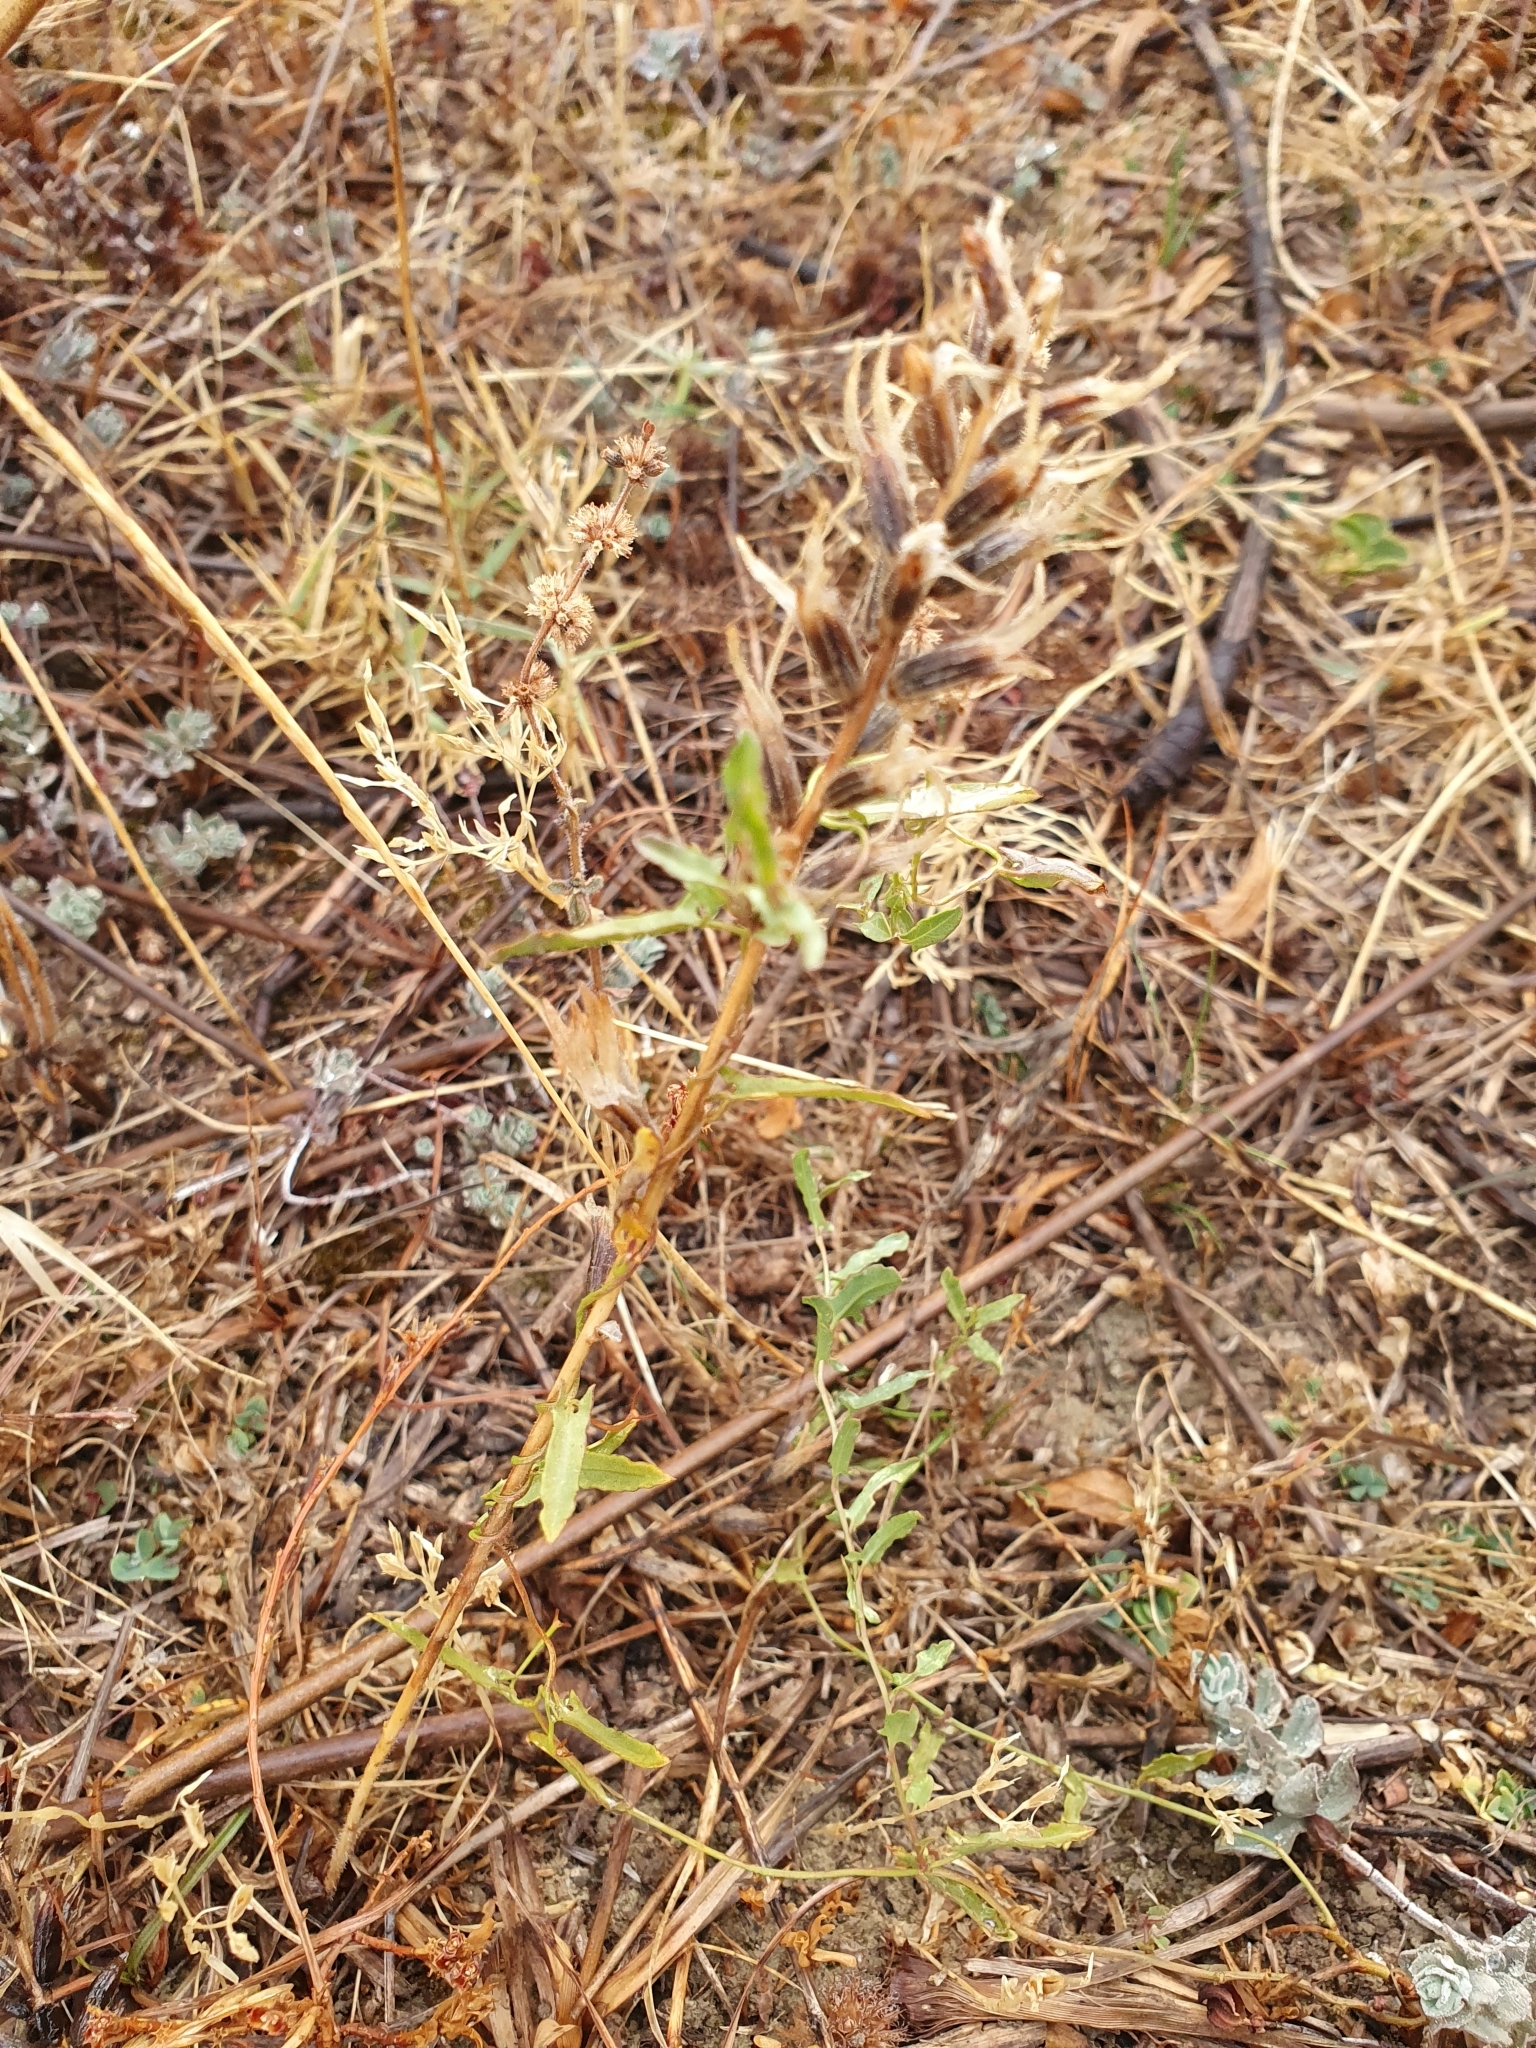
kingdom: Plantae
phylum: Tracheophyta
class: Magnoliopsida
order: Lamiales
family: Orobanchaceae
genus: Bellardia
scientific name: Bellardia viscosa
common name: Sticky parentucellia
